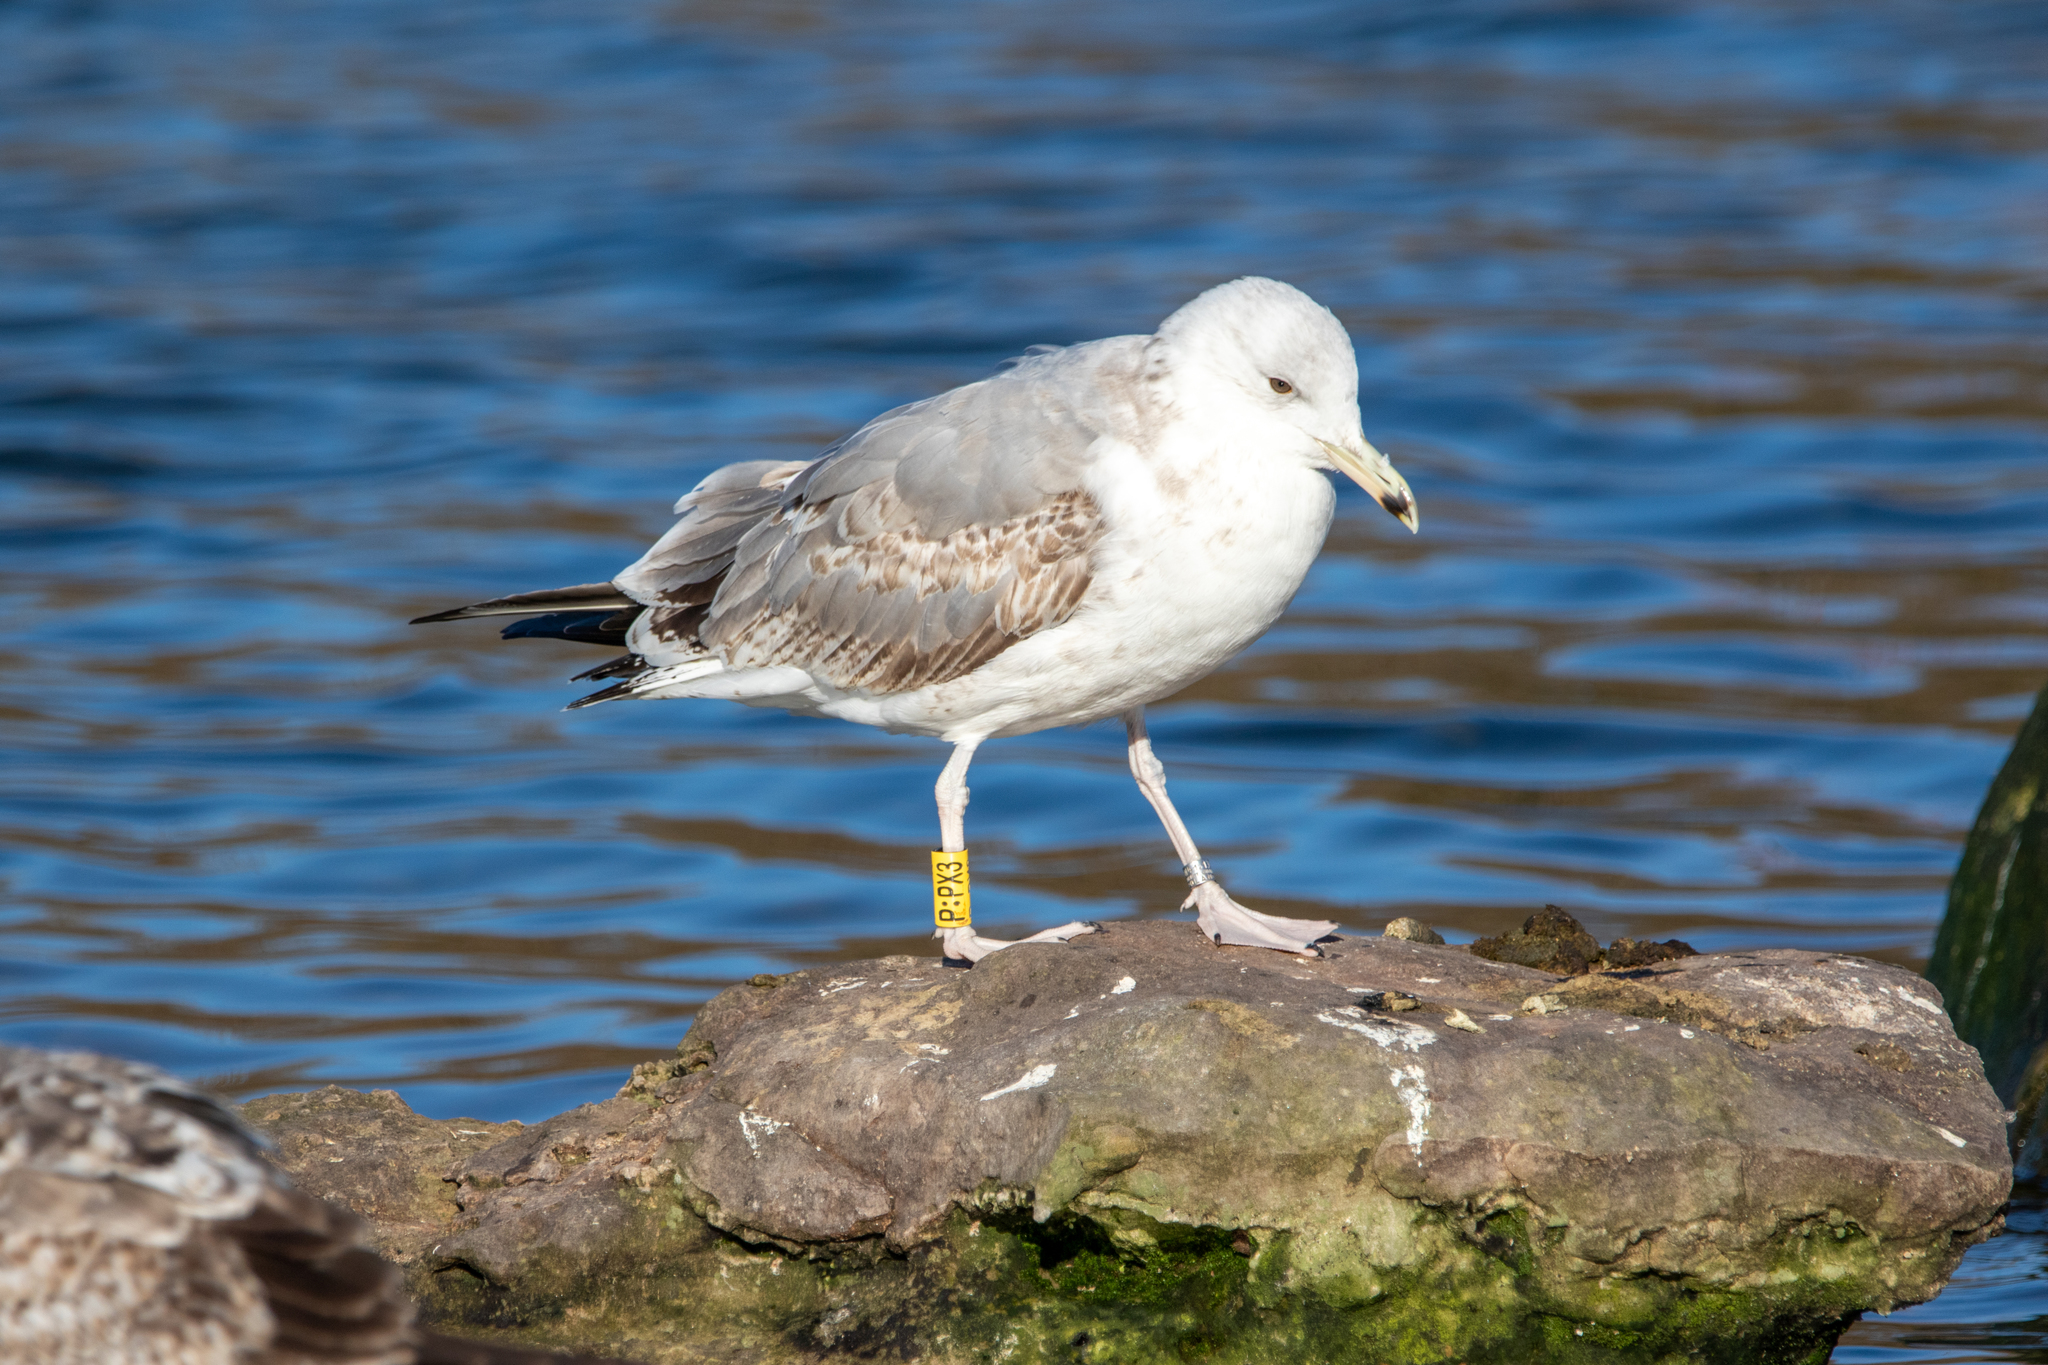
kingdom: Animalia
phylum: Chordata
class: Aves
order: Charadriiformes
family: Laridae
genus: Larus
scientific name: Larus cachinnans
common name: Caspian gull
